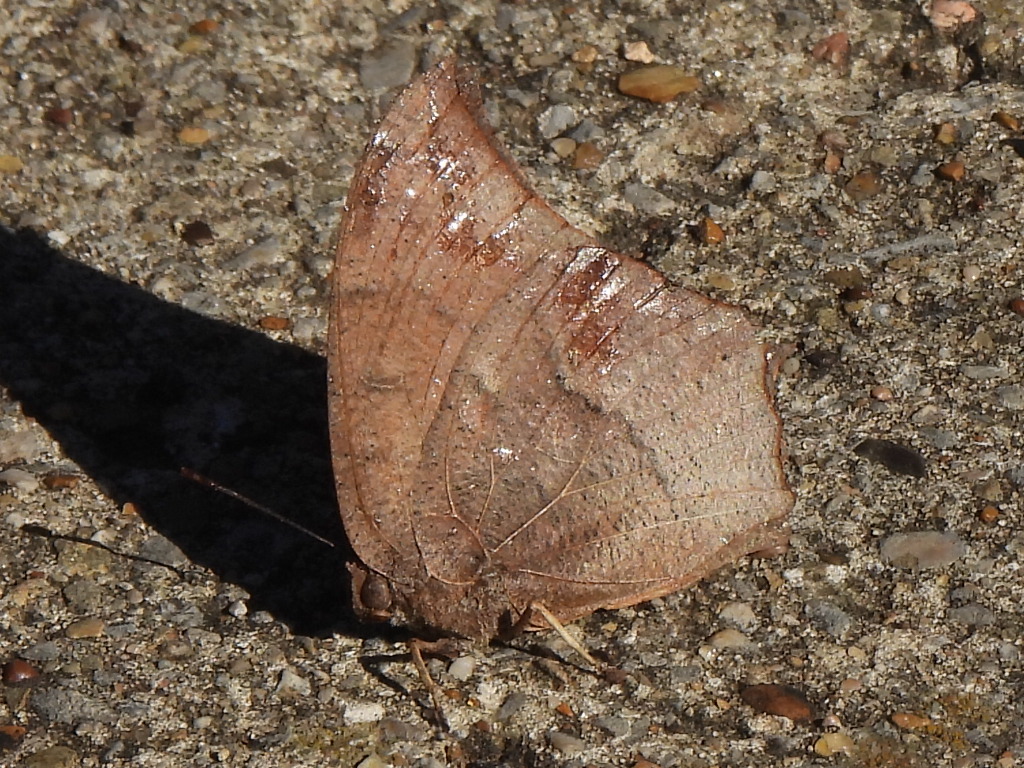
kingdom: Animalia
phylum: Arthropoda
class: Insecta
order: Lepidoptera
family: Nymphalidae
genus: Anaea
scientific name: Anaea andria
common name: Goatweed leafwing
